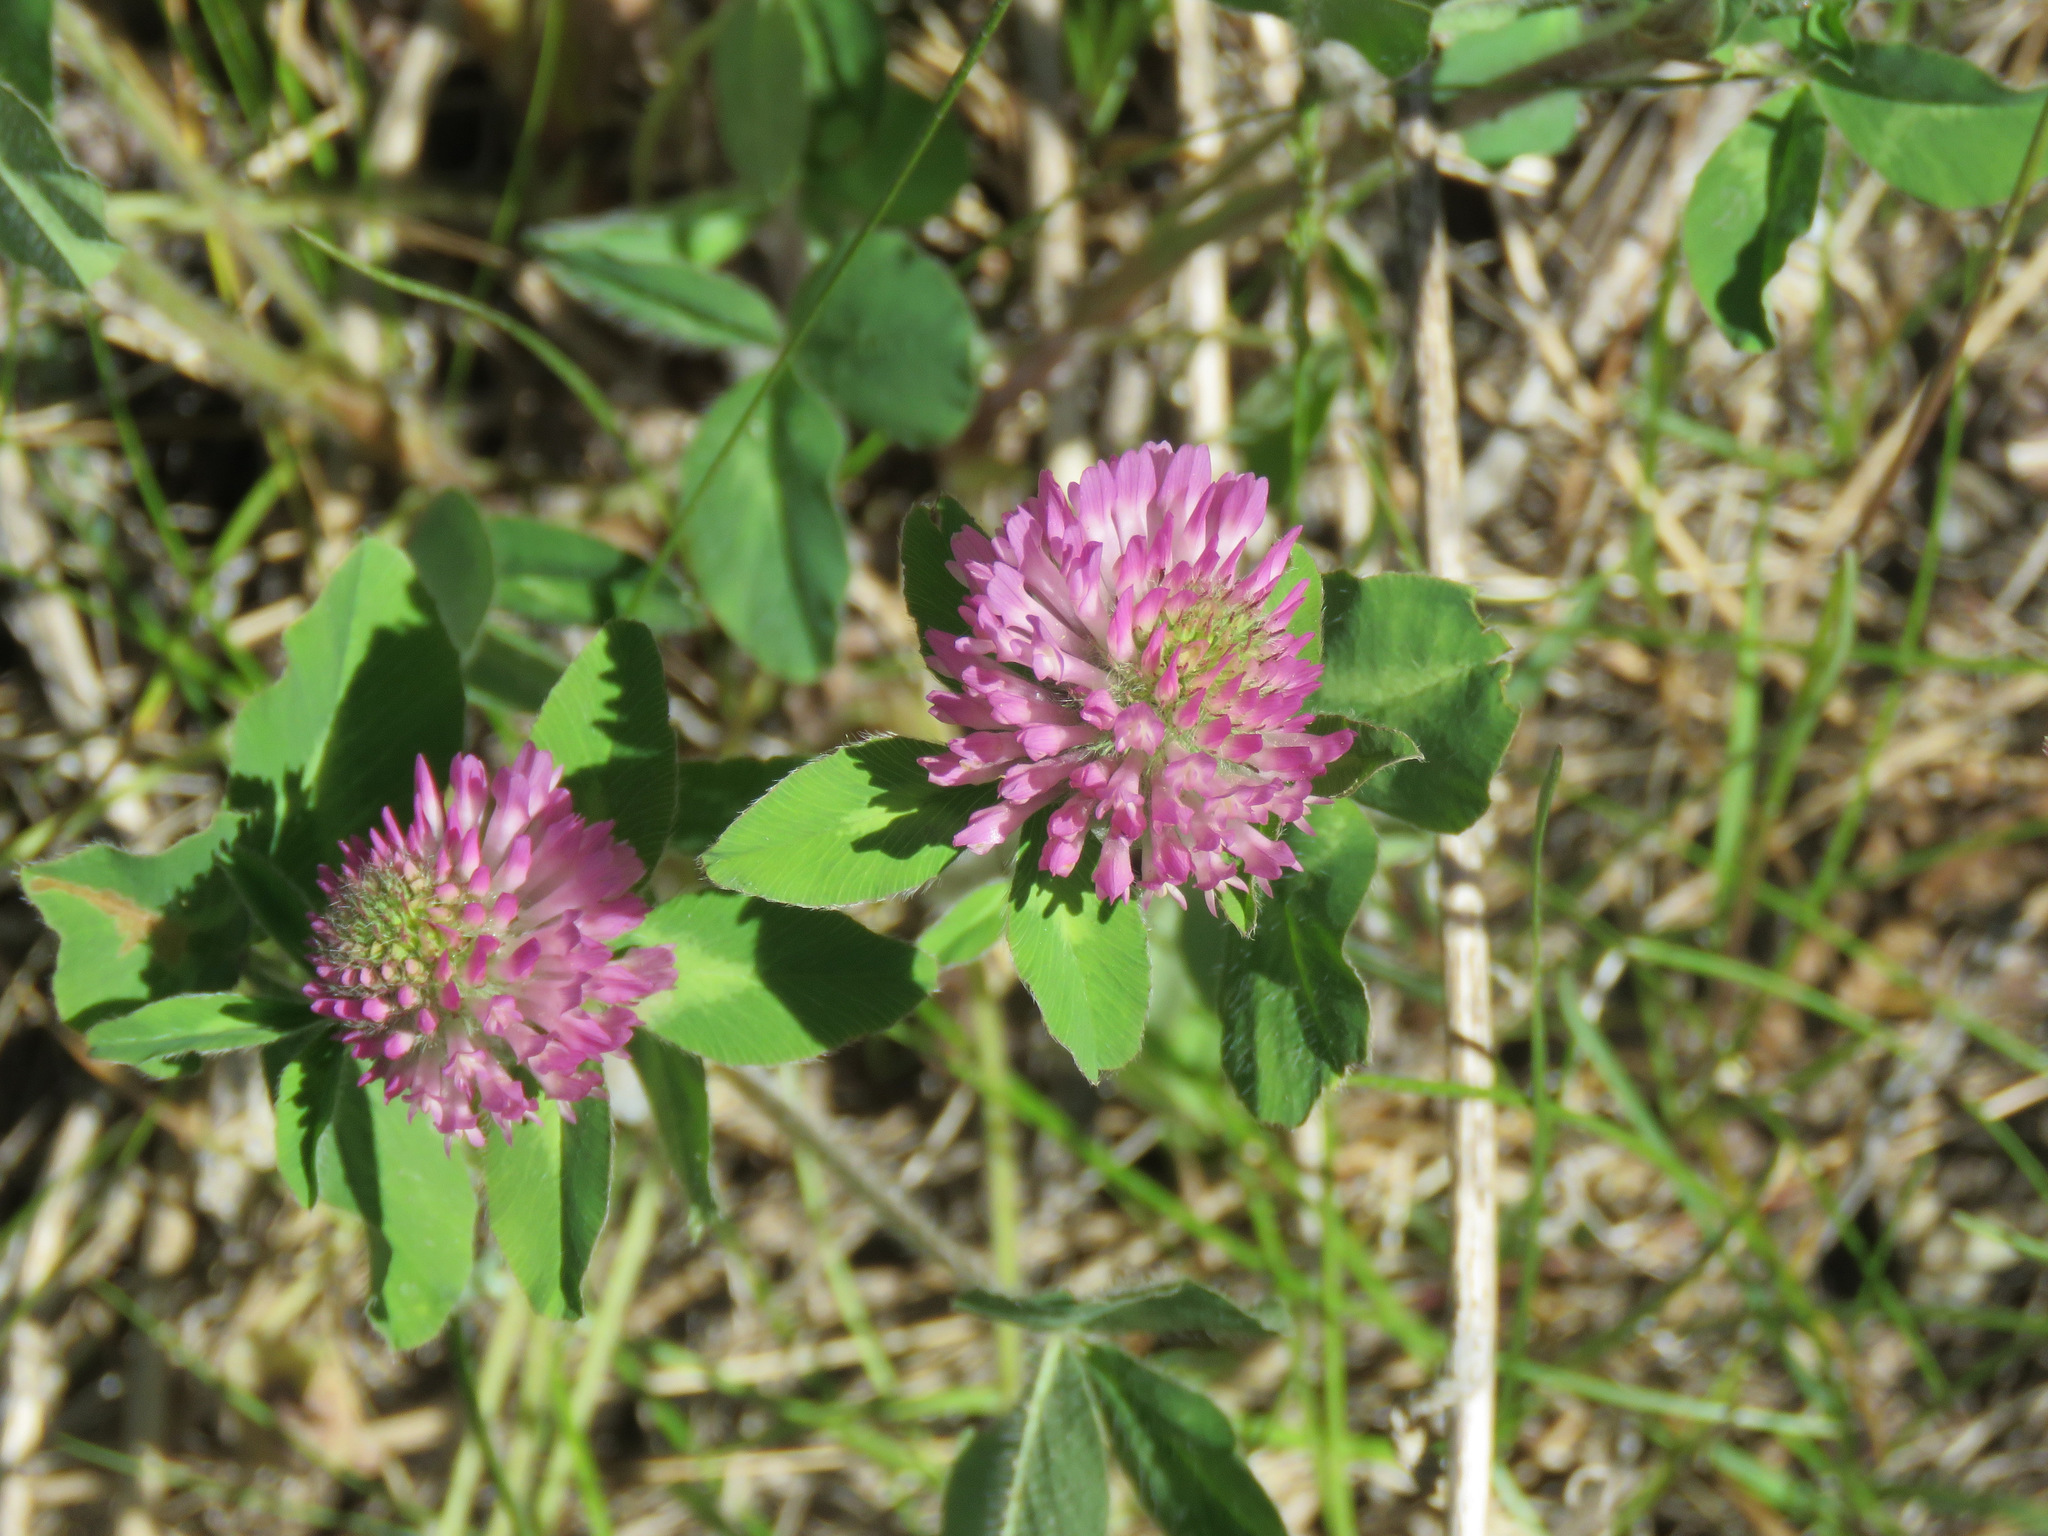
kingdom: Plantae
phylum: Tracheophyta
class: Magnoliopsida
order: Fabales
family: Fabaceae
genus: Trifolium
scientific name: Trifolium pratense
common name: Red clover
